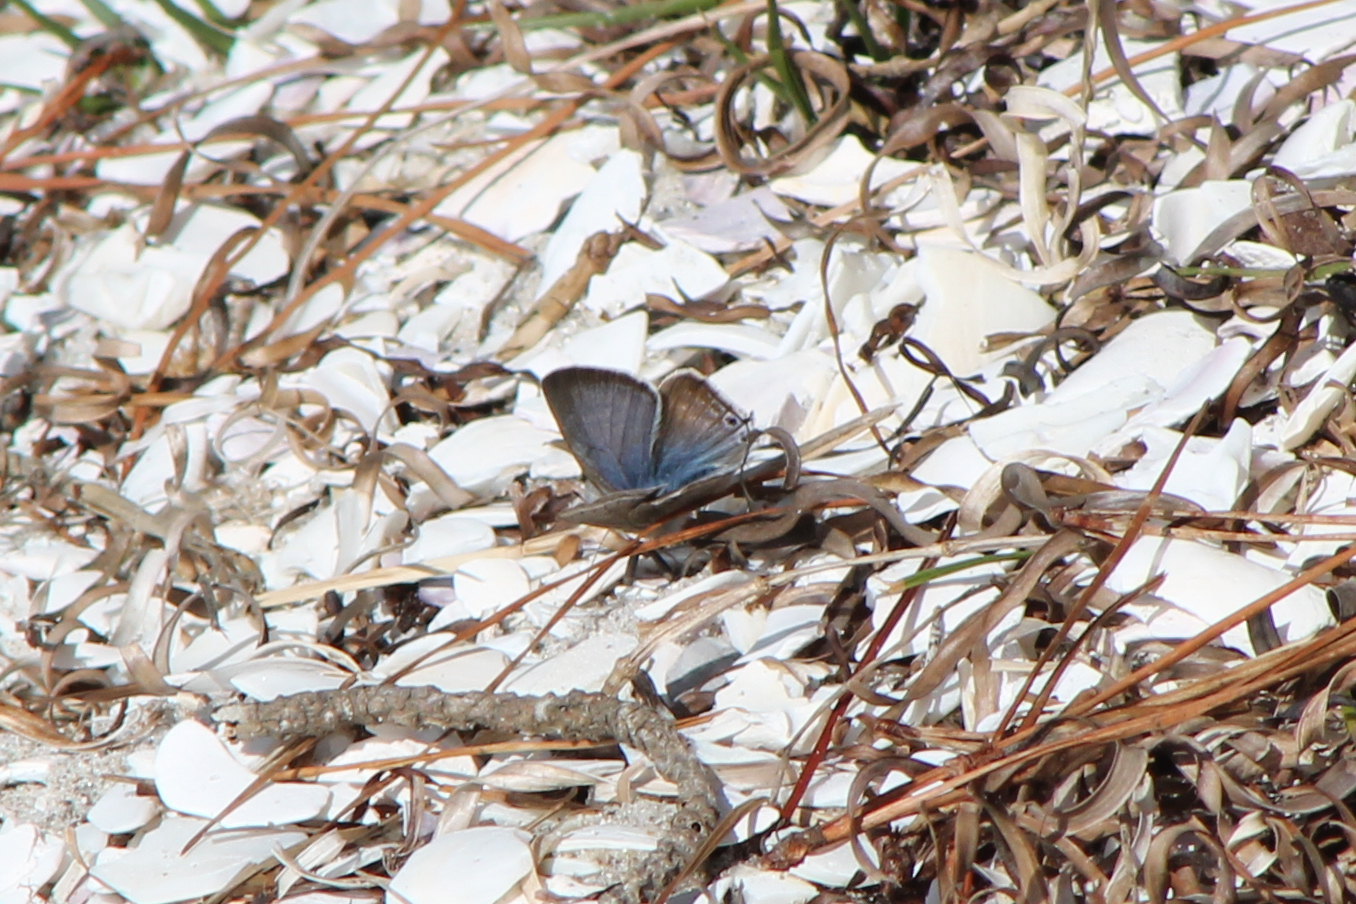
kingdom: Animalia
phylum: Arthropoda
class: Insecta
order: Lepidoptera
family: Lycaenidae
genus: Lampides
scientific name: Lampides boeticus
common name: Long-tailed blue
